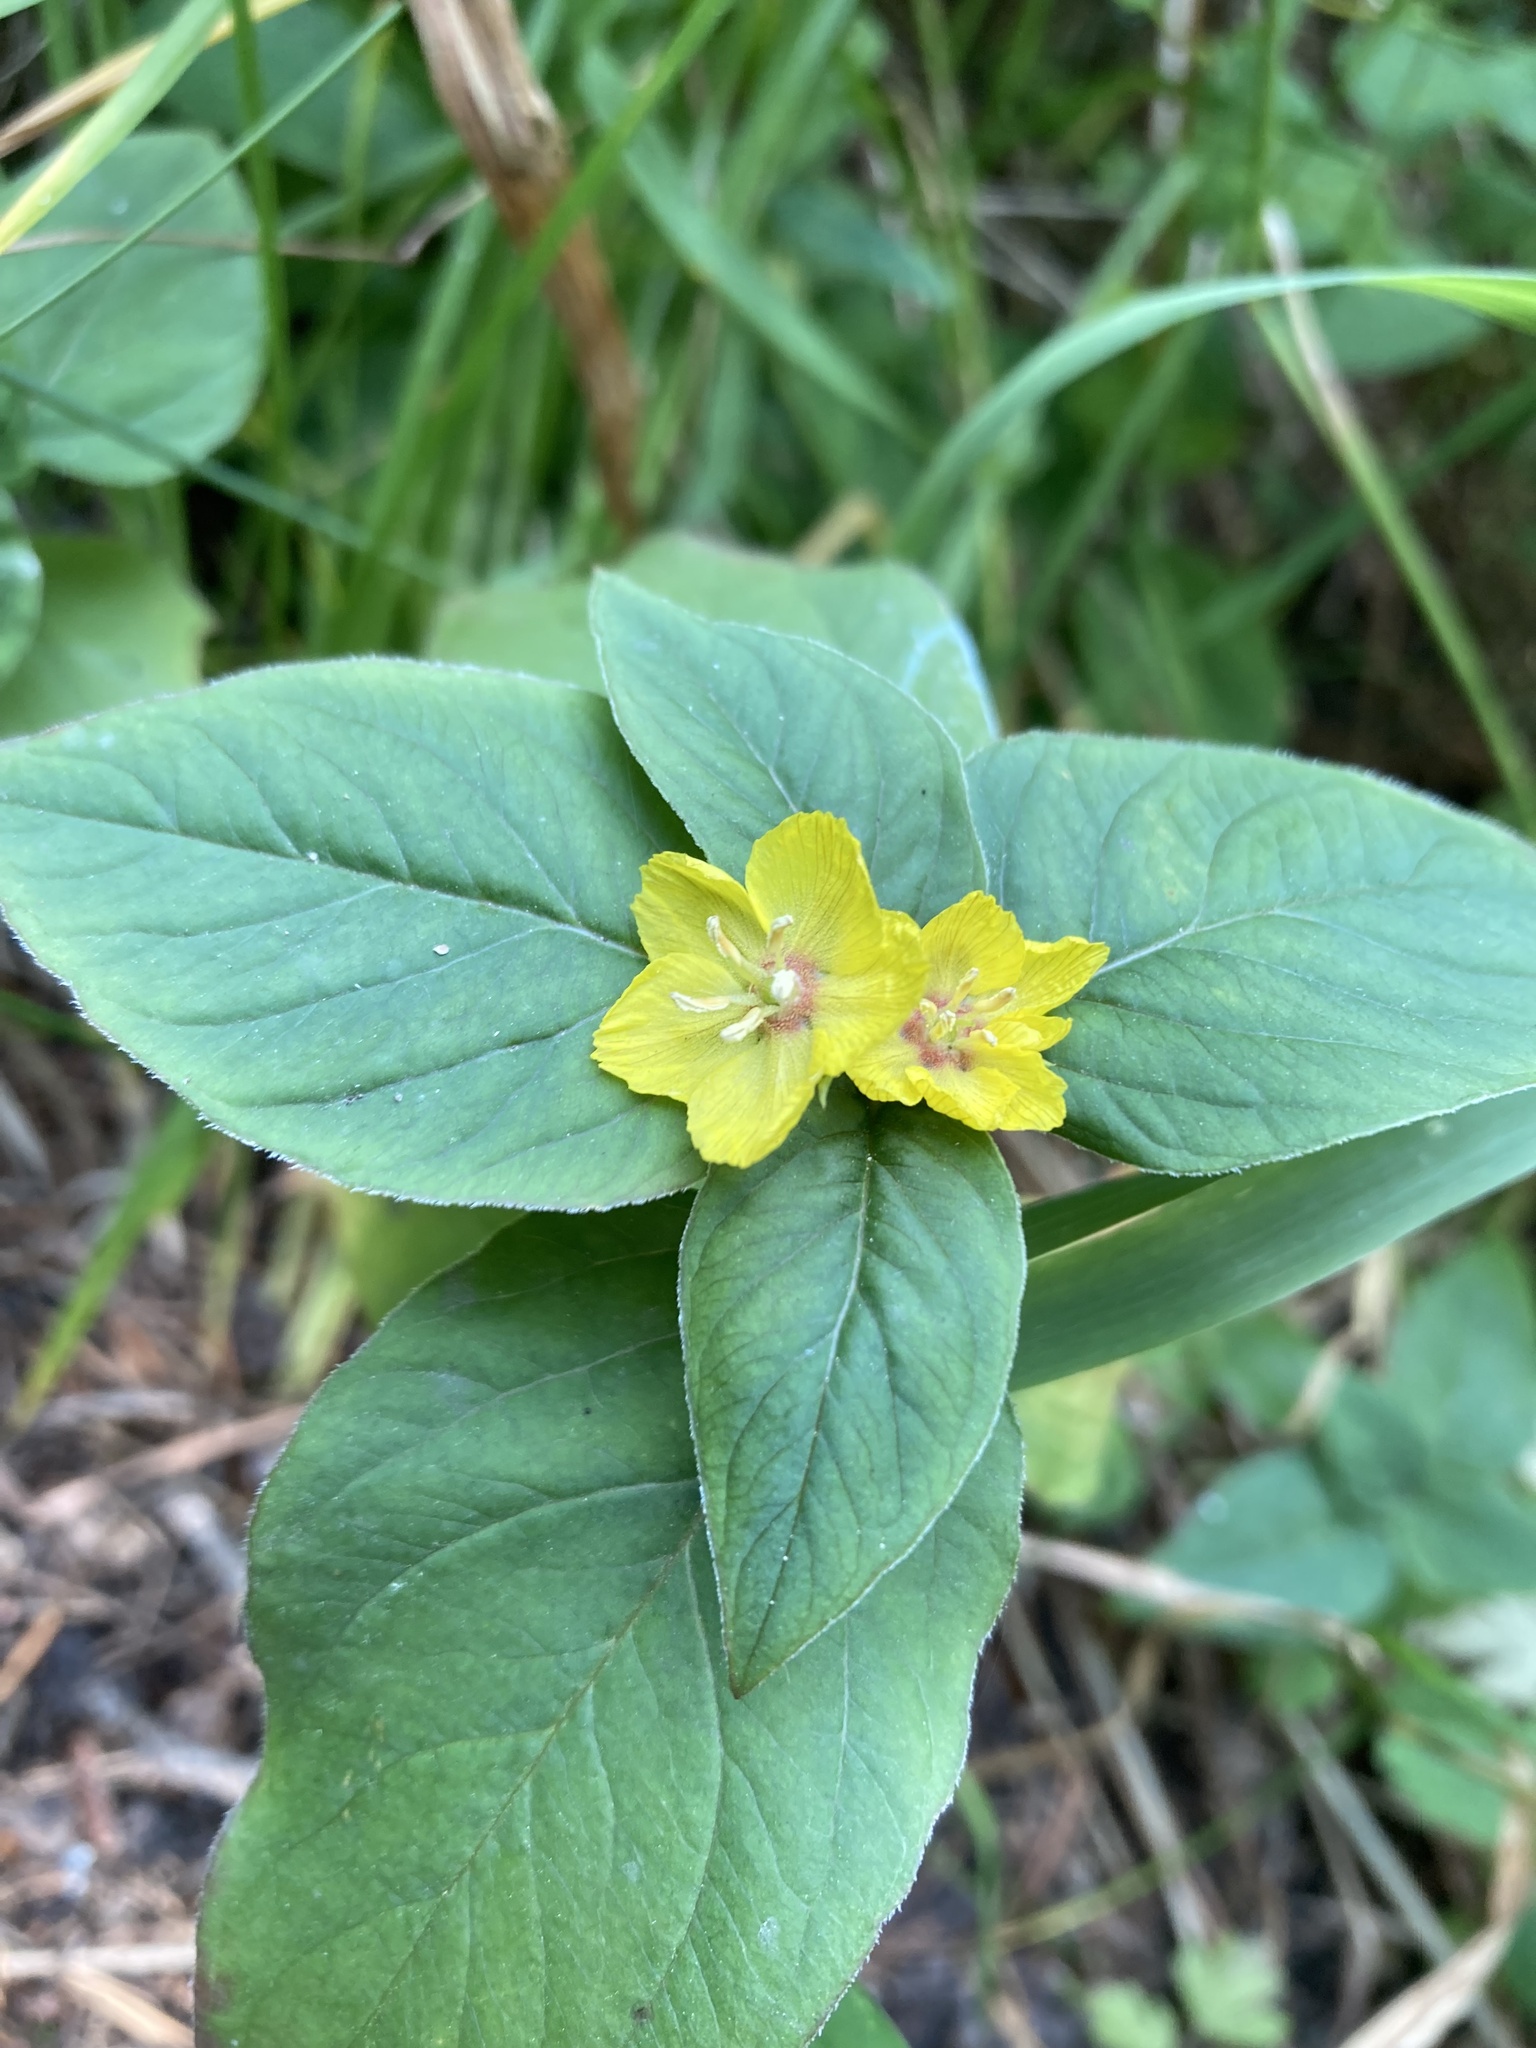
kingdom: Plantae
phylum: Tracheophyta
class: Magnoliopsida
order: Ericales
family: Primulaceae
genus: Lysimachia
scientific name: Lysimachia ciliata
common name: Fringed loosestrife
